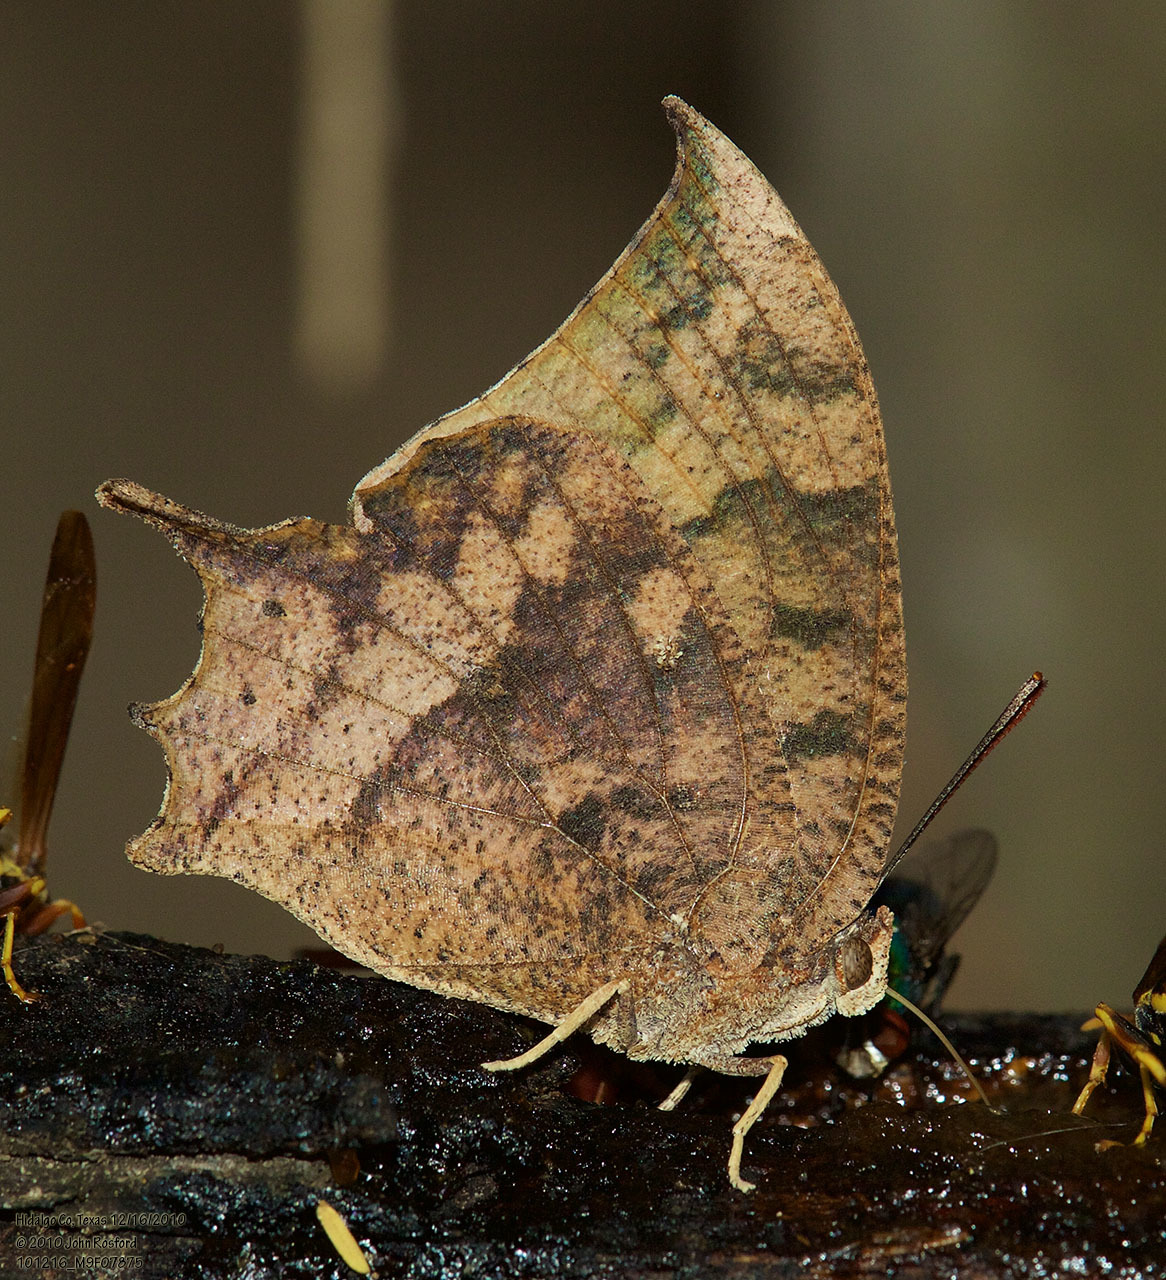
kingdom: Animalia
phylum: Arthropoda
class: Insecta
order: Lepidoptera
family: Nymphalidae
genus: Anaea
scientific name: Anaea aidea
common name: Tropical leafwing
